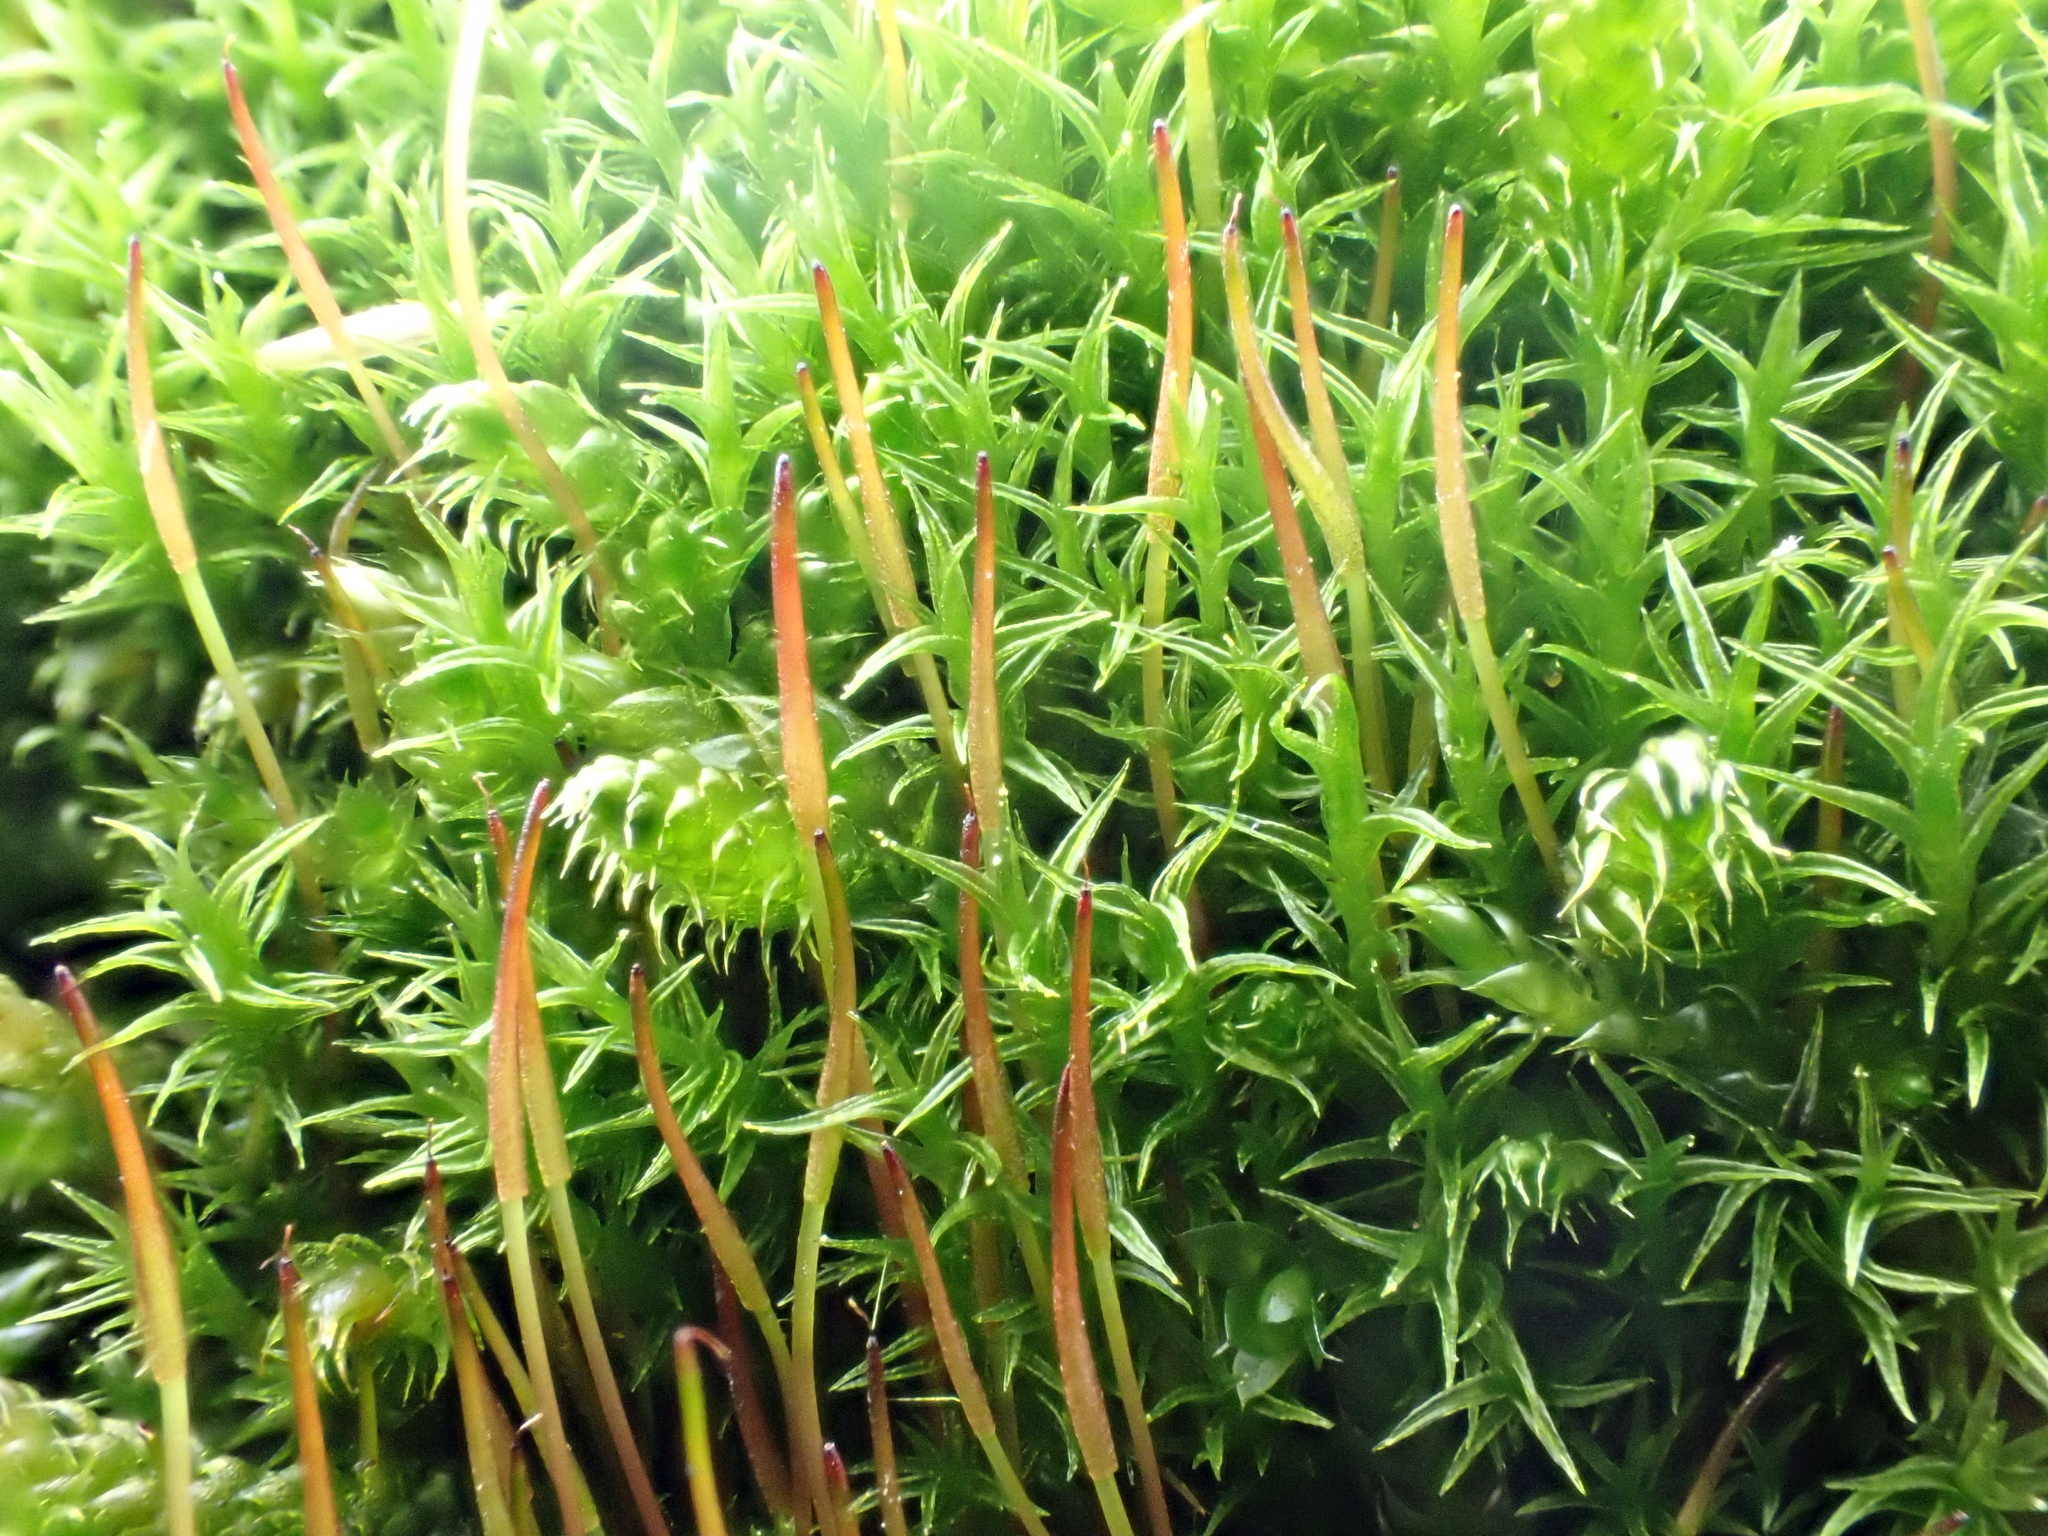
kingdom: Plantae
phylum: Bryophyta
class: Bryopsida
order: Dicranales
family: Ditrichaceae
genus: Ceratodon
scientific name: Ceratodon purpureus
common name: Redshank
